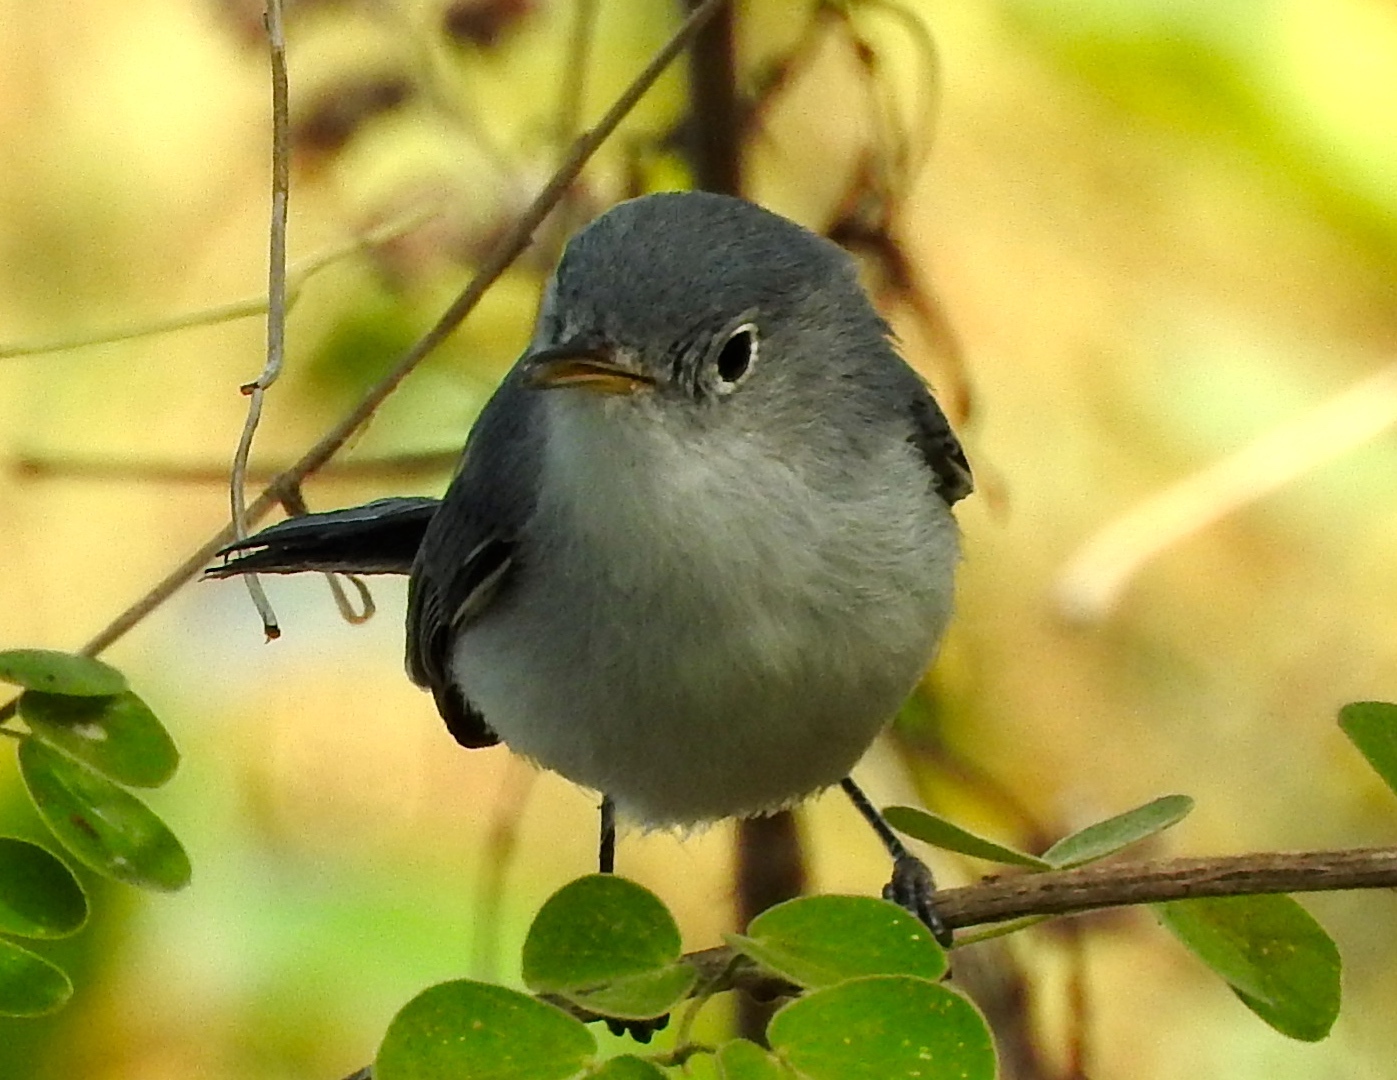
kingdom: Animalia
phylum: Chordata
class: Aves
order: Passeriformes
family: Polioptilidae
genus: Polioptila
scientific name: Polioptila caerulea
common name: Blue-gray gnatcatcher
